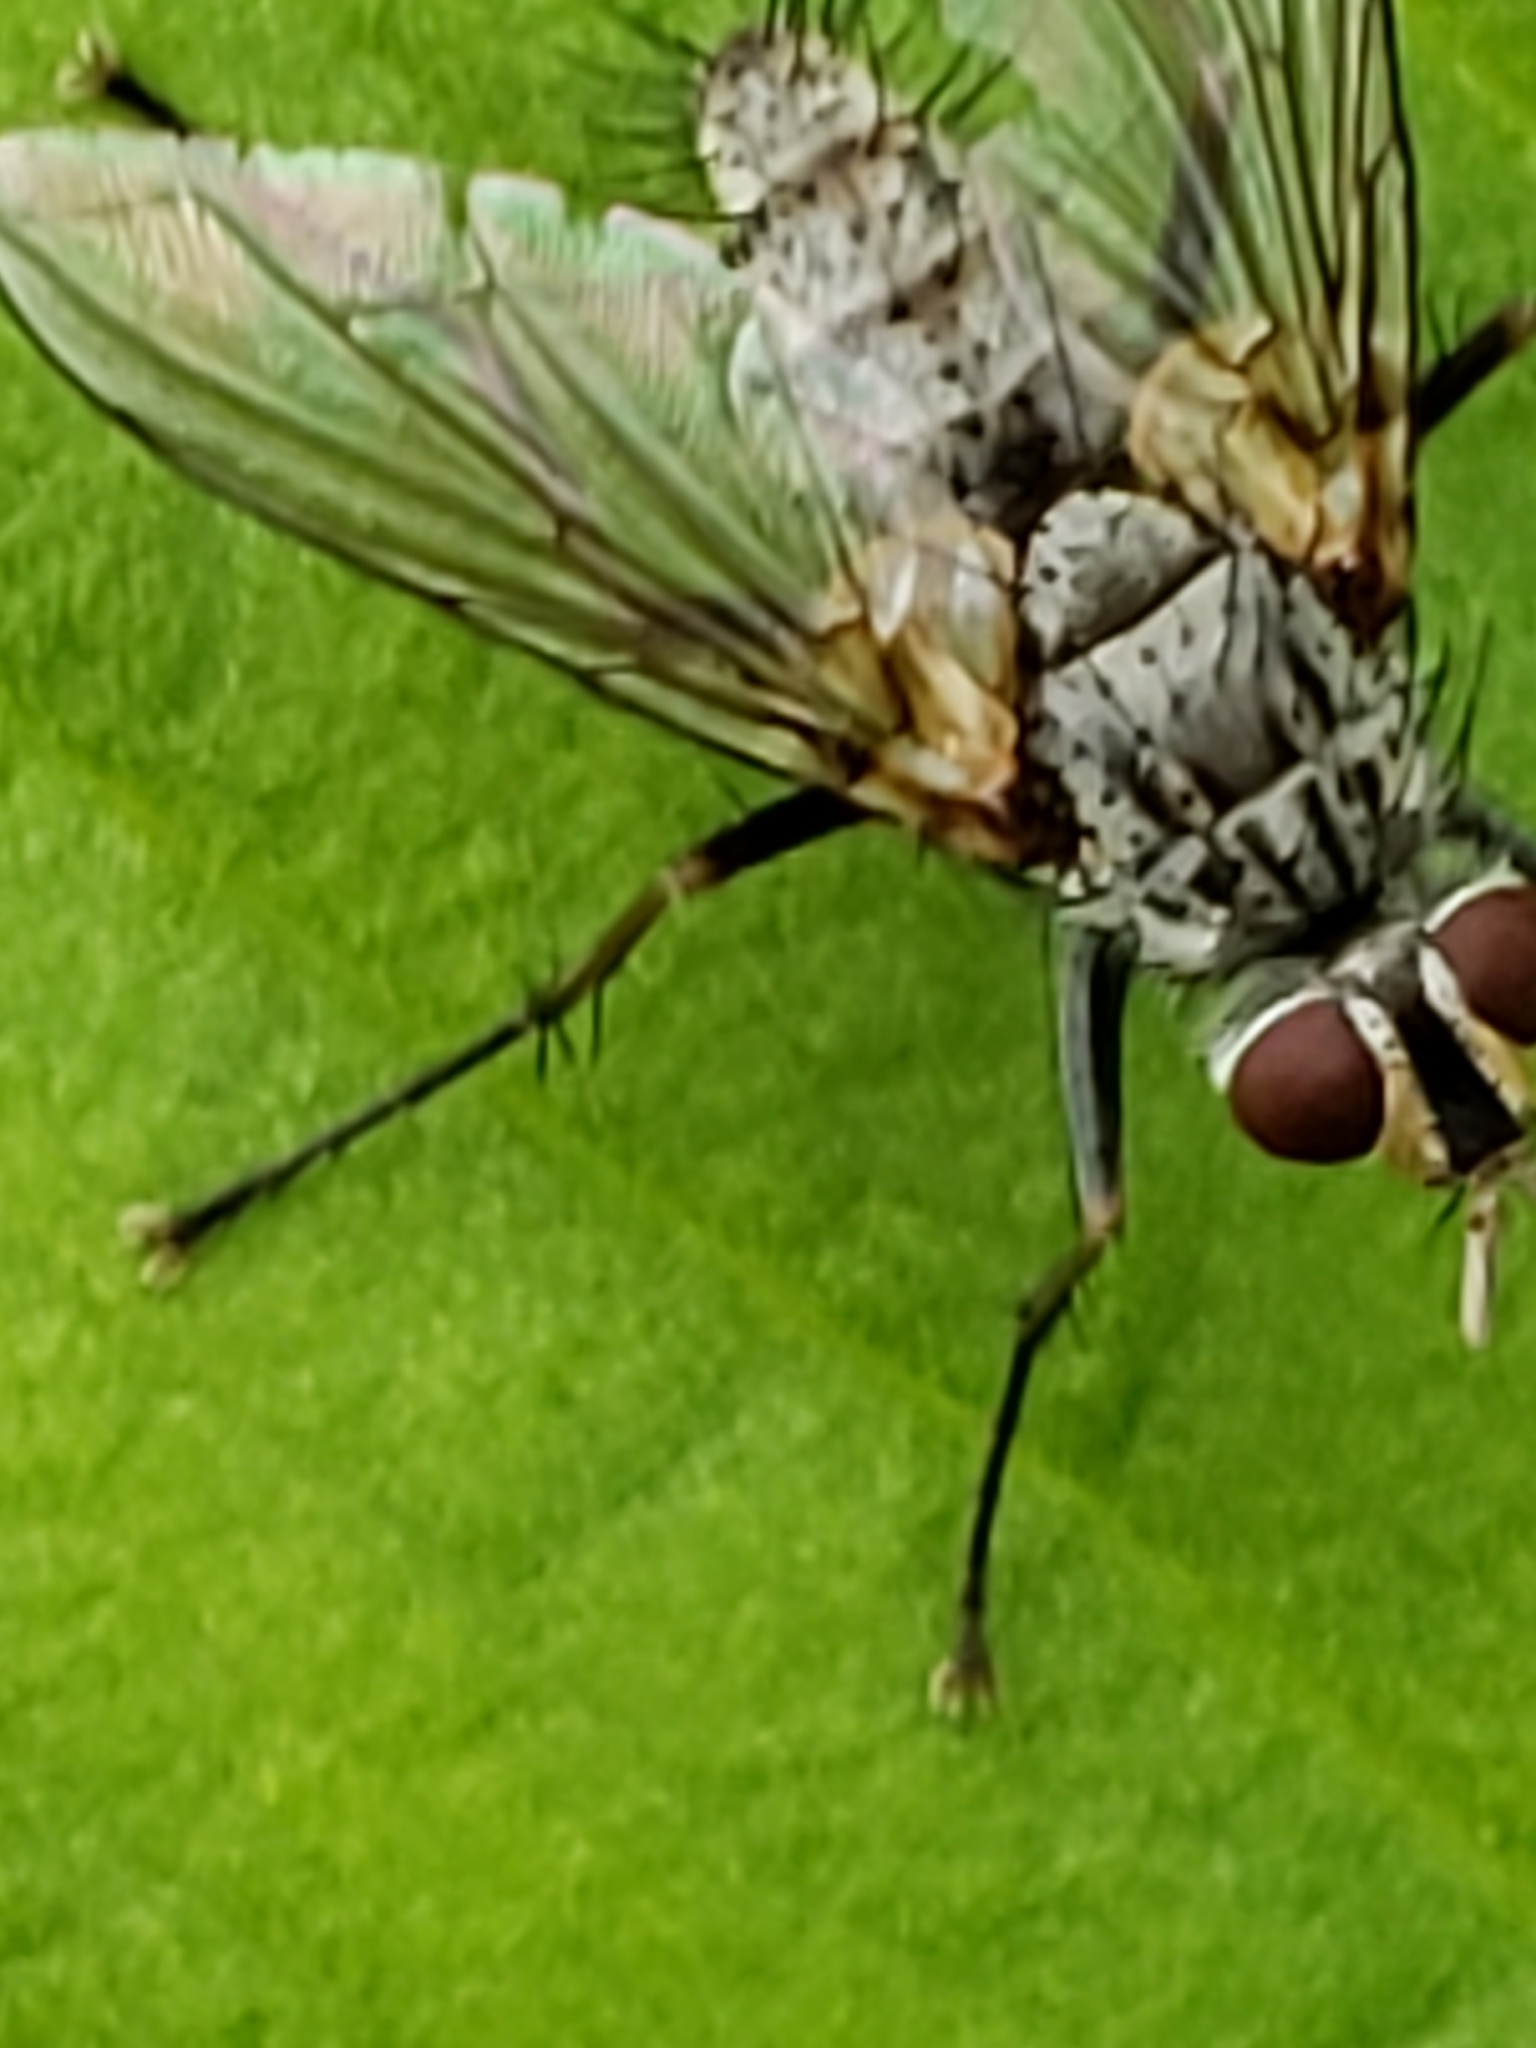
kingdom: Animalia
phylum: Arthropoda
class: Insecta
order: Diptera
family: Tachinidae
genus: Cryptomeigenia
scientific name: Cryptomeigenia
